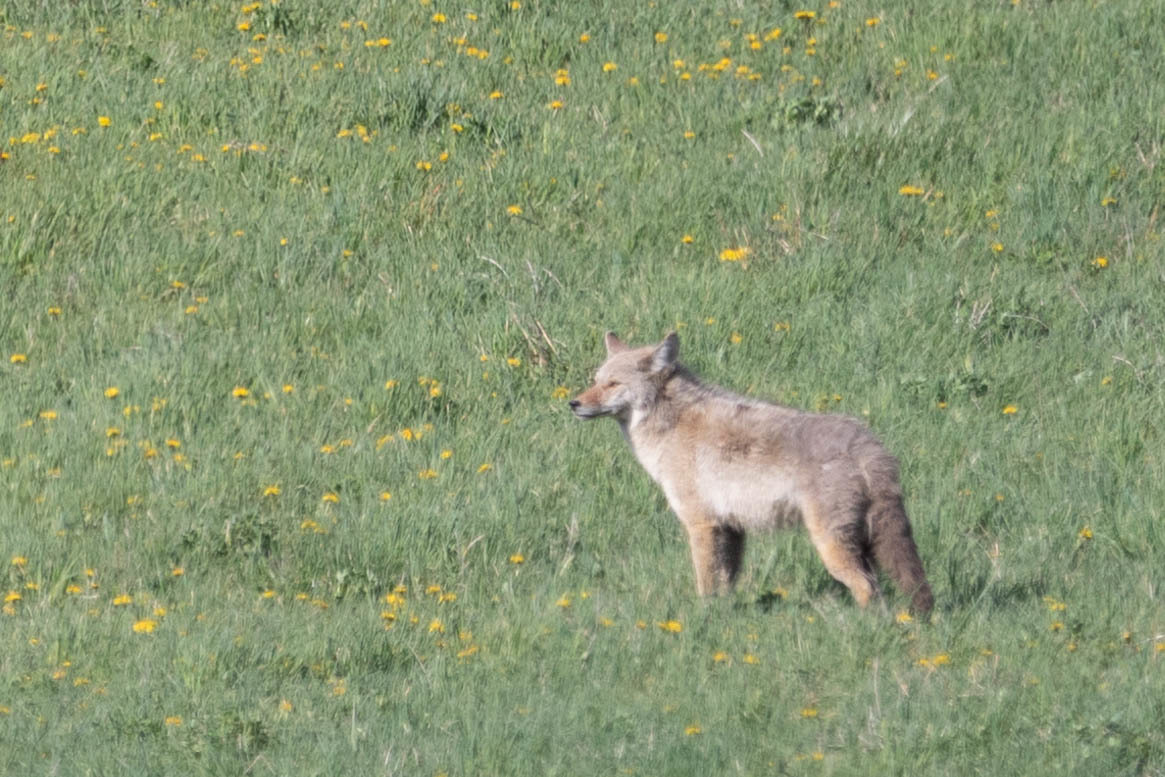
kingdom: Animalia
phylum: Chordata
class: Mammalia
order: Carnivora
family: Canidae
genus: Canis
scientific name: Canis latrans
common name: Coyote
